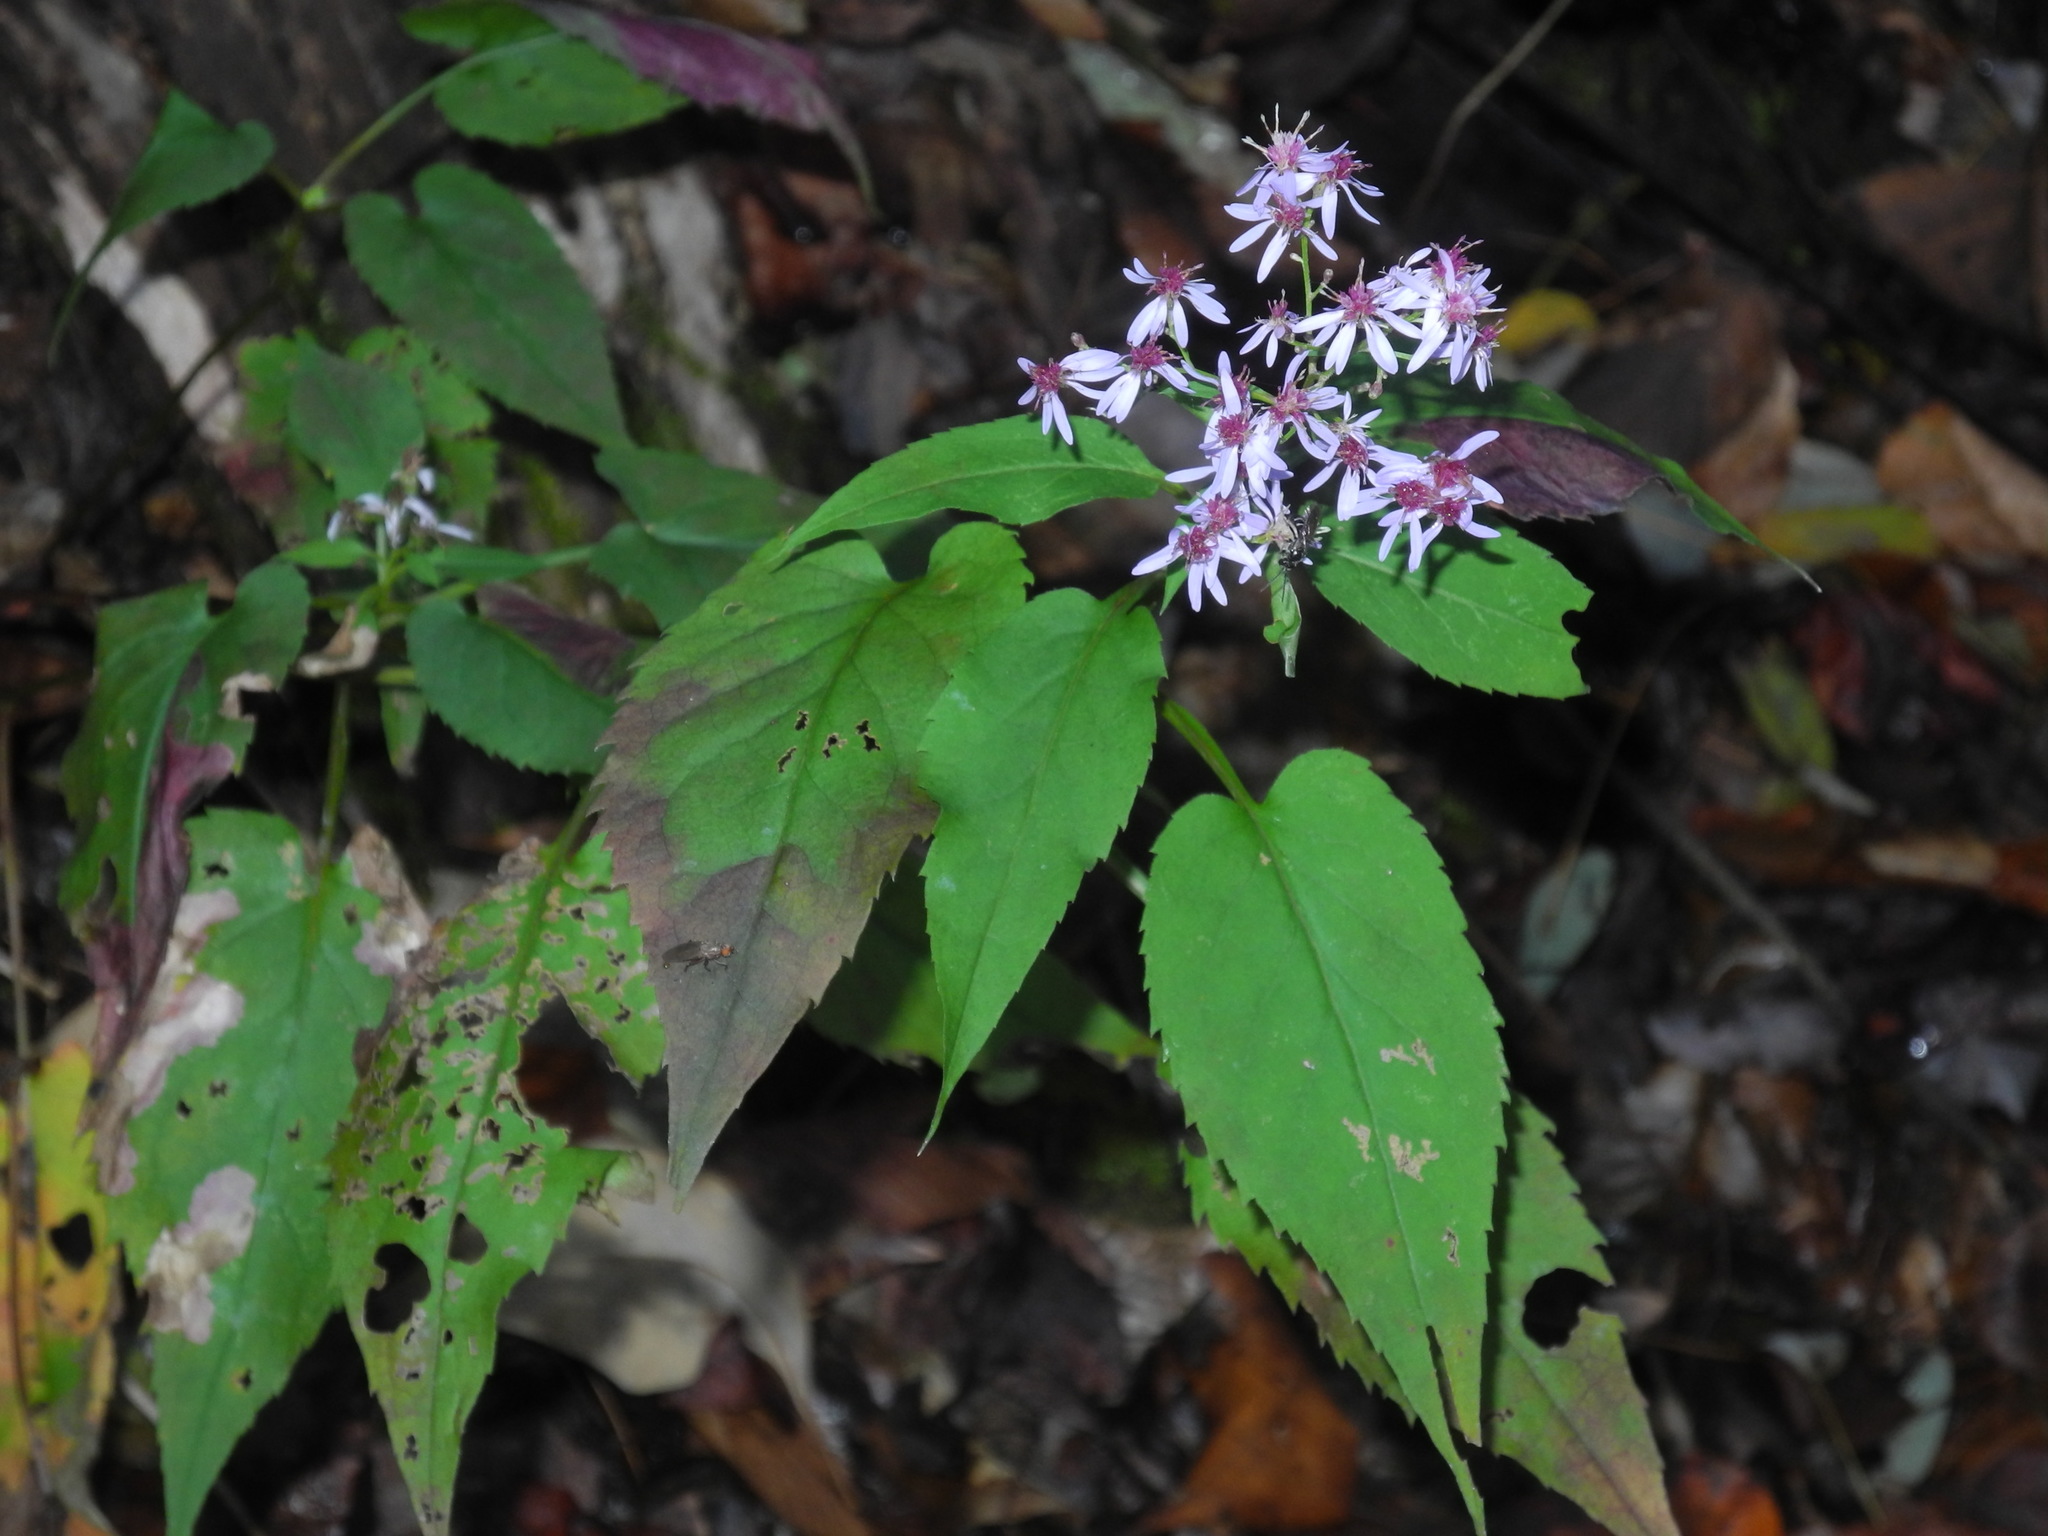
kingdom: Plantae
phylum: Tracheophyta
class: Magnoliopsida
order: Asterales
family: Asteraceae
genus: Symphyotrichum
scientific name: Symphyotrichum cordifolium
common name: Beeweed
